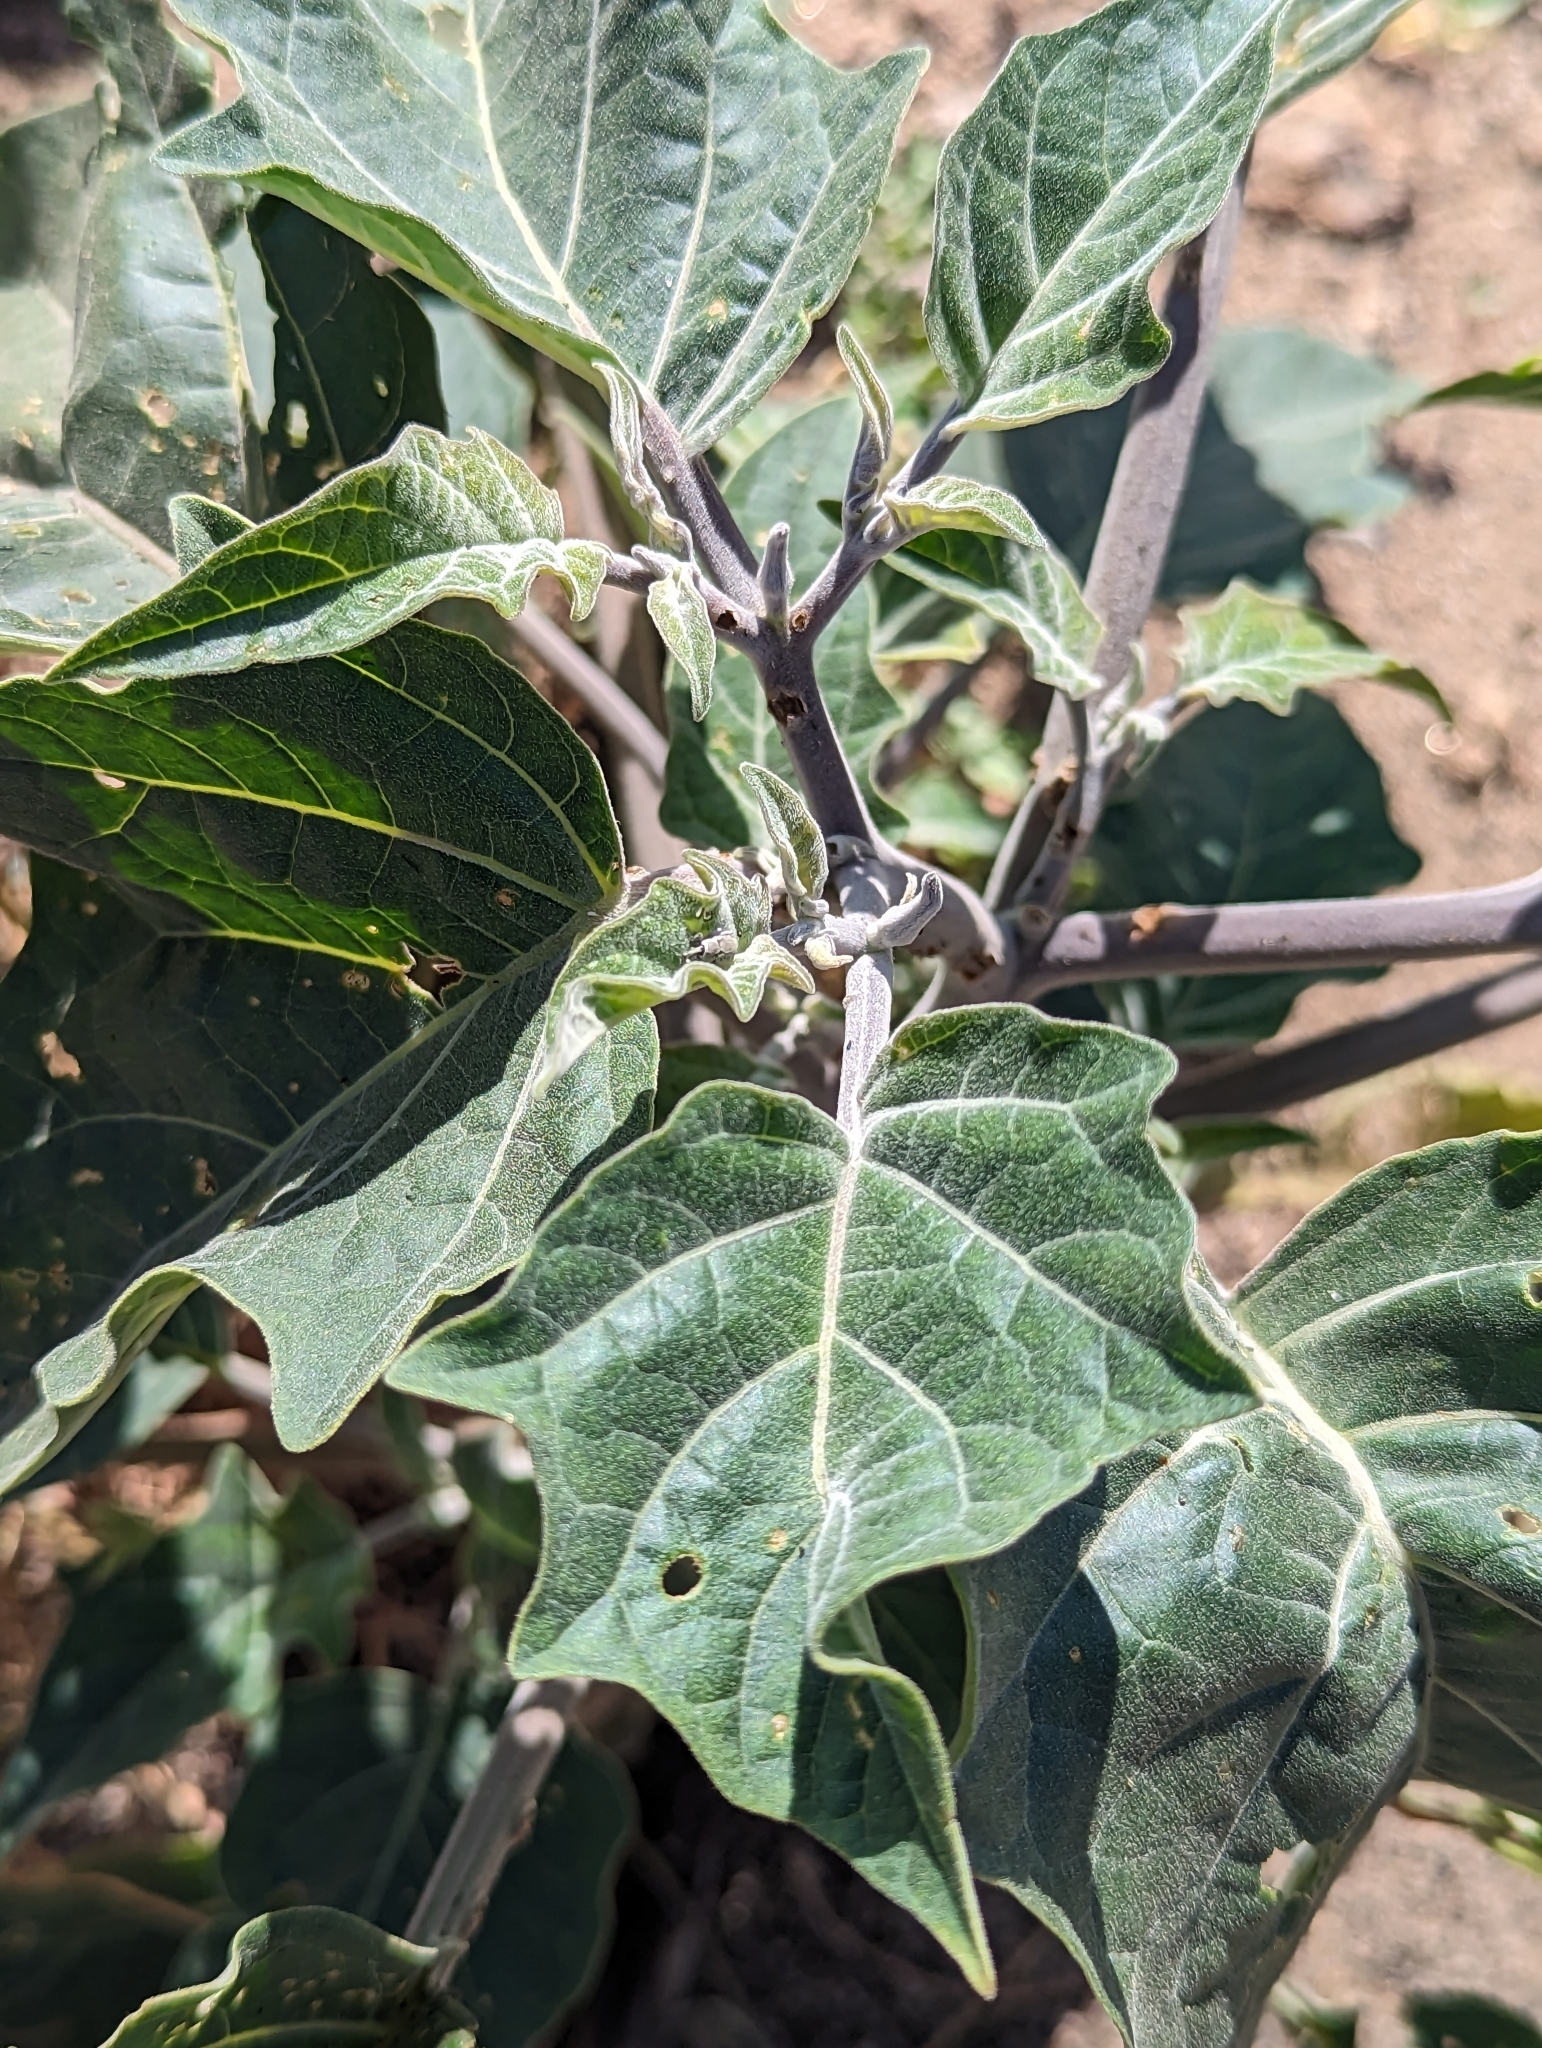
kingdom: Plantae
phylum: Tracheophyta
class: Magnoliopsida
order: Solanales
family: Solanaceae
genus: Datura
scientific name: Datura wrightii
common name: Sacred thorn-apple
